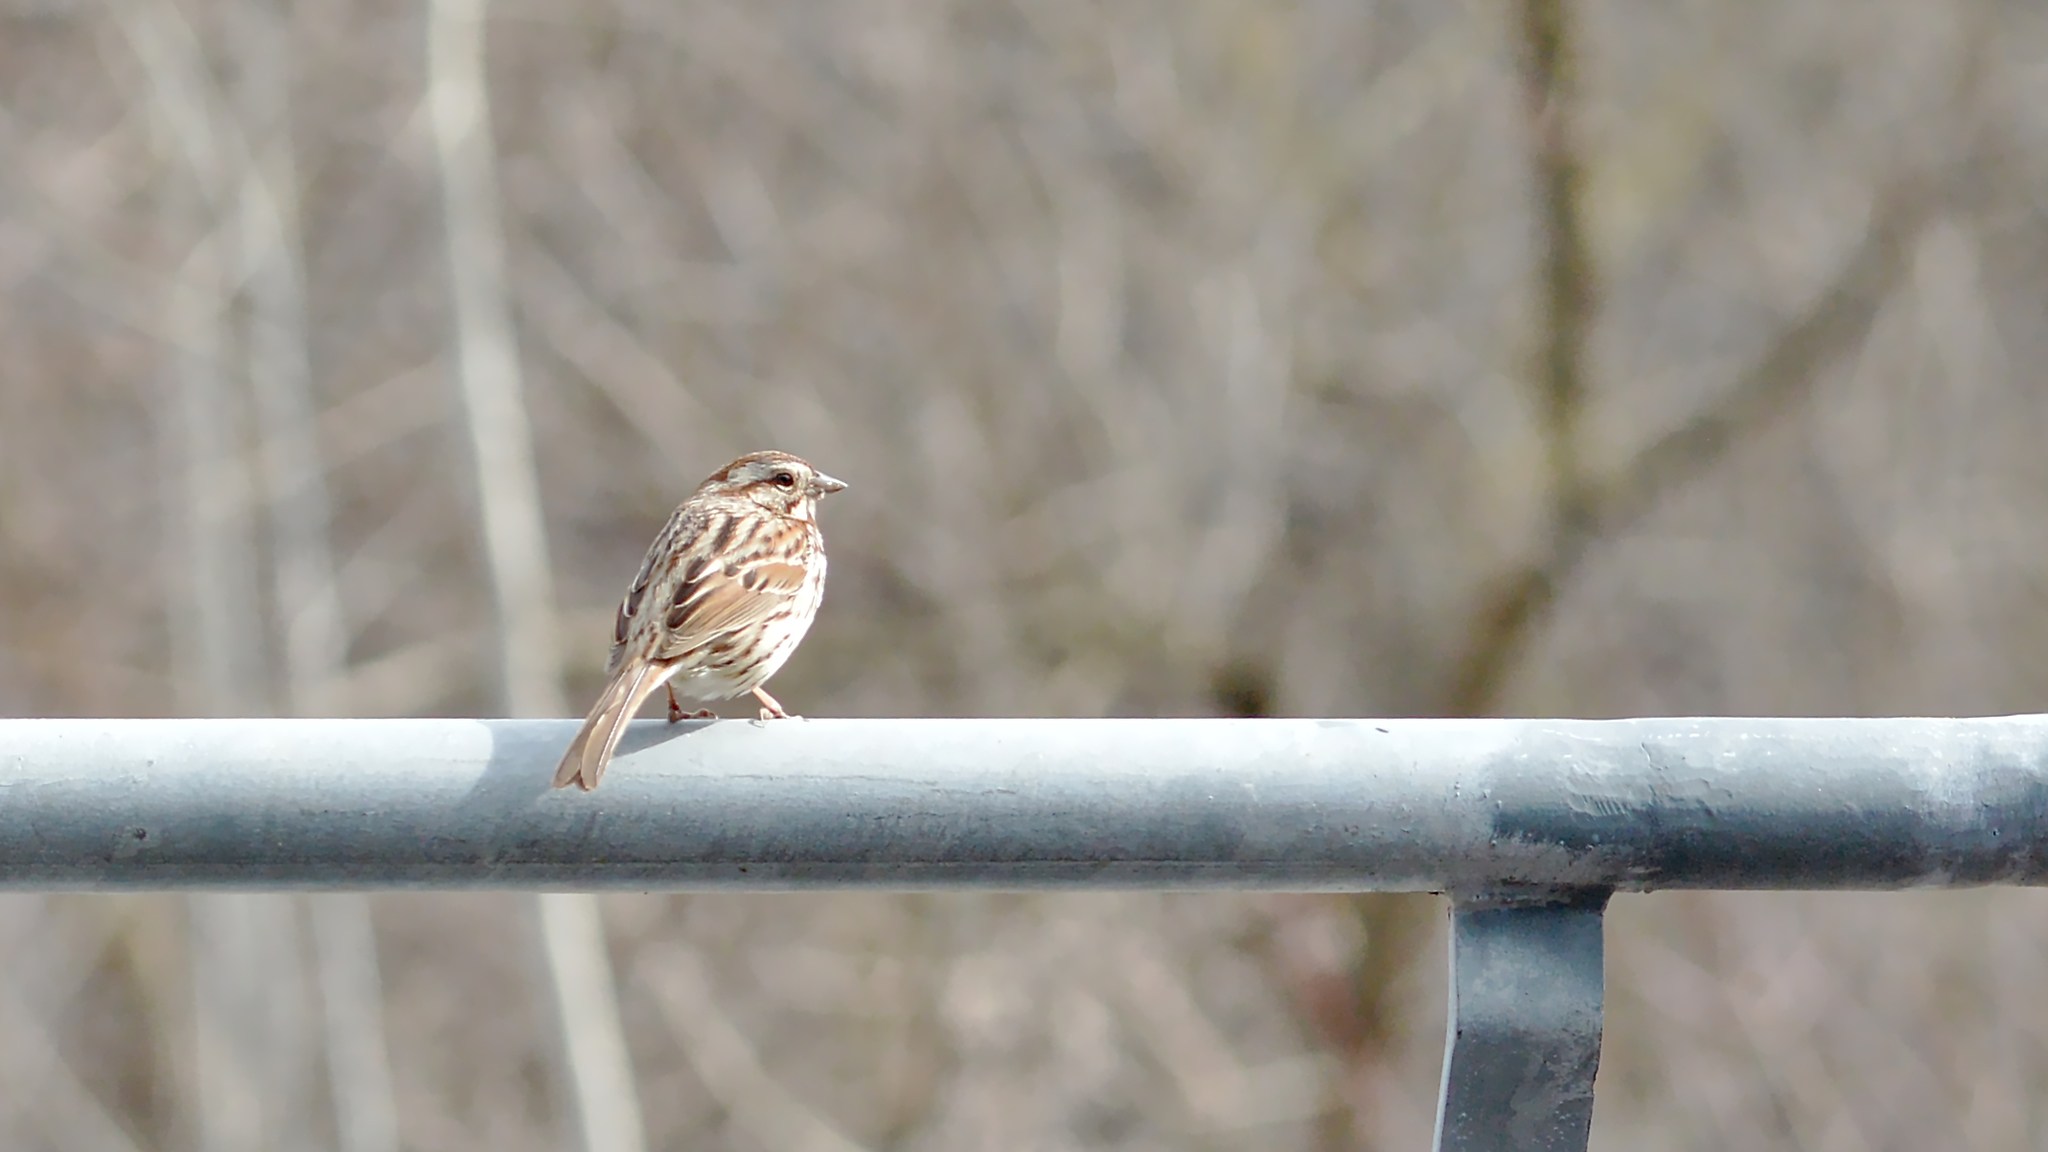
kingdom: Animalia
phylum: Chordata
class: Aves
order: Passeriformes
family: Passerellidae
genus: Melospiza
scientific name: Melospiza melodia
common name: Song sparrow
